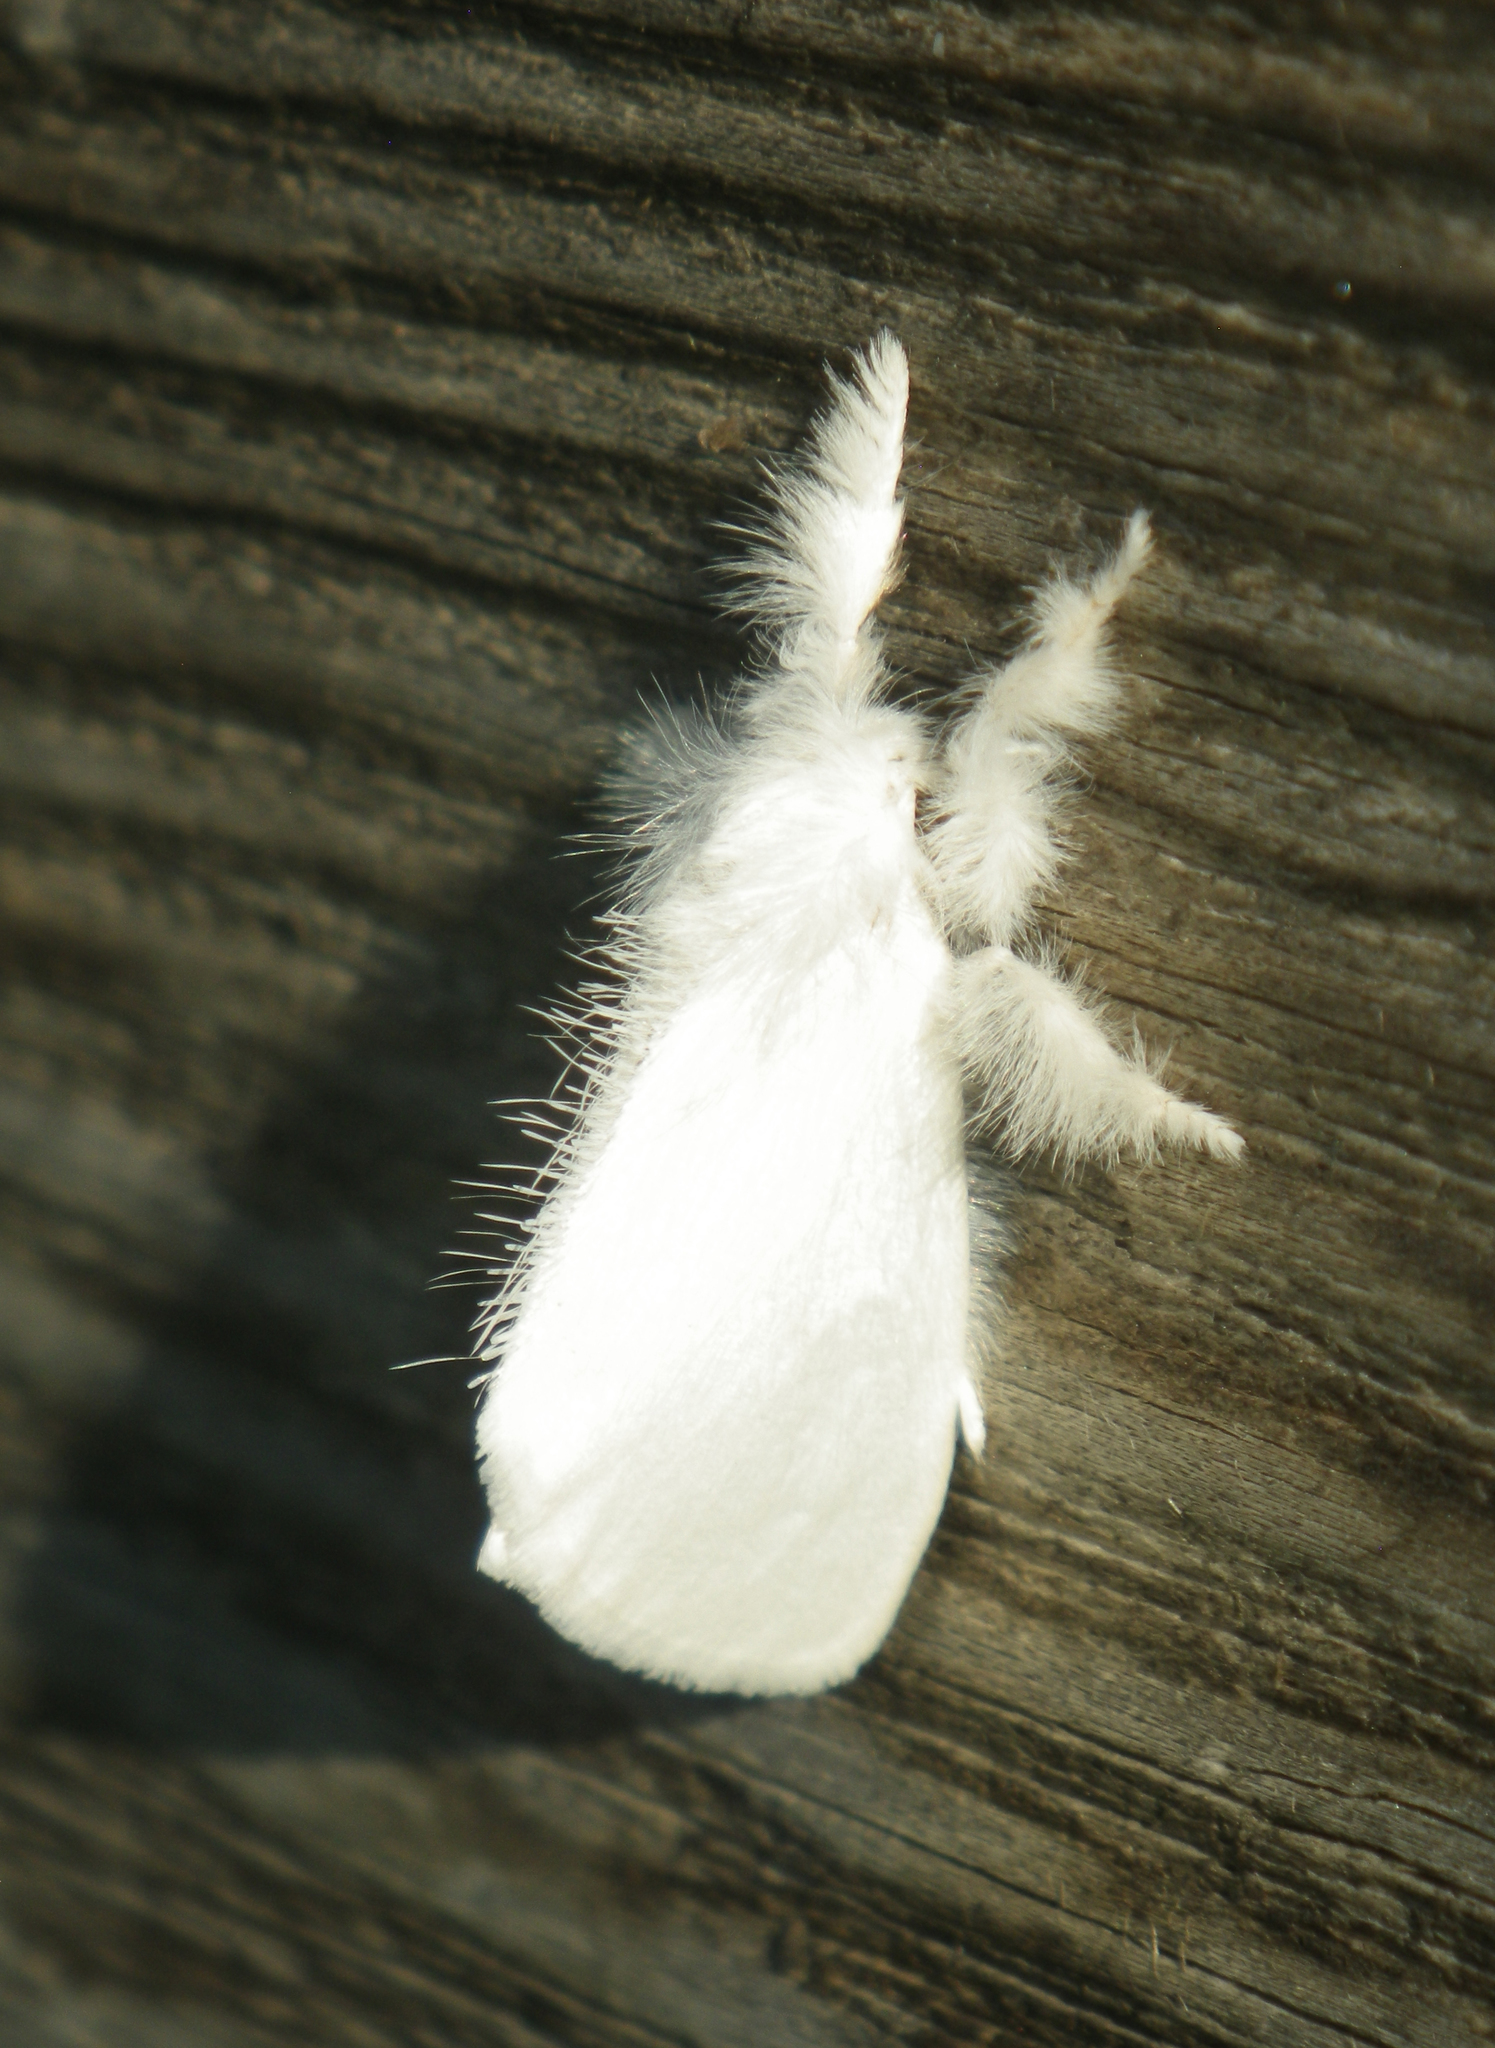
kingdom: Animalia
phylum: Arthropoda
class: Insecta
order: Lepidoptera
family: Erebidae
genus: Sphrageidus
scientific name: Sphrageidus similis
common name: Yellow-tail
